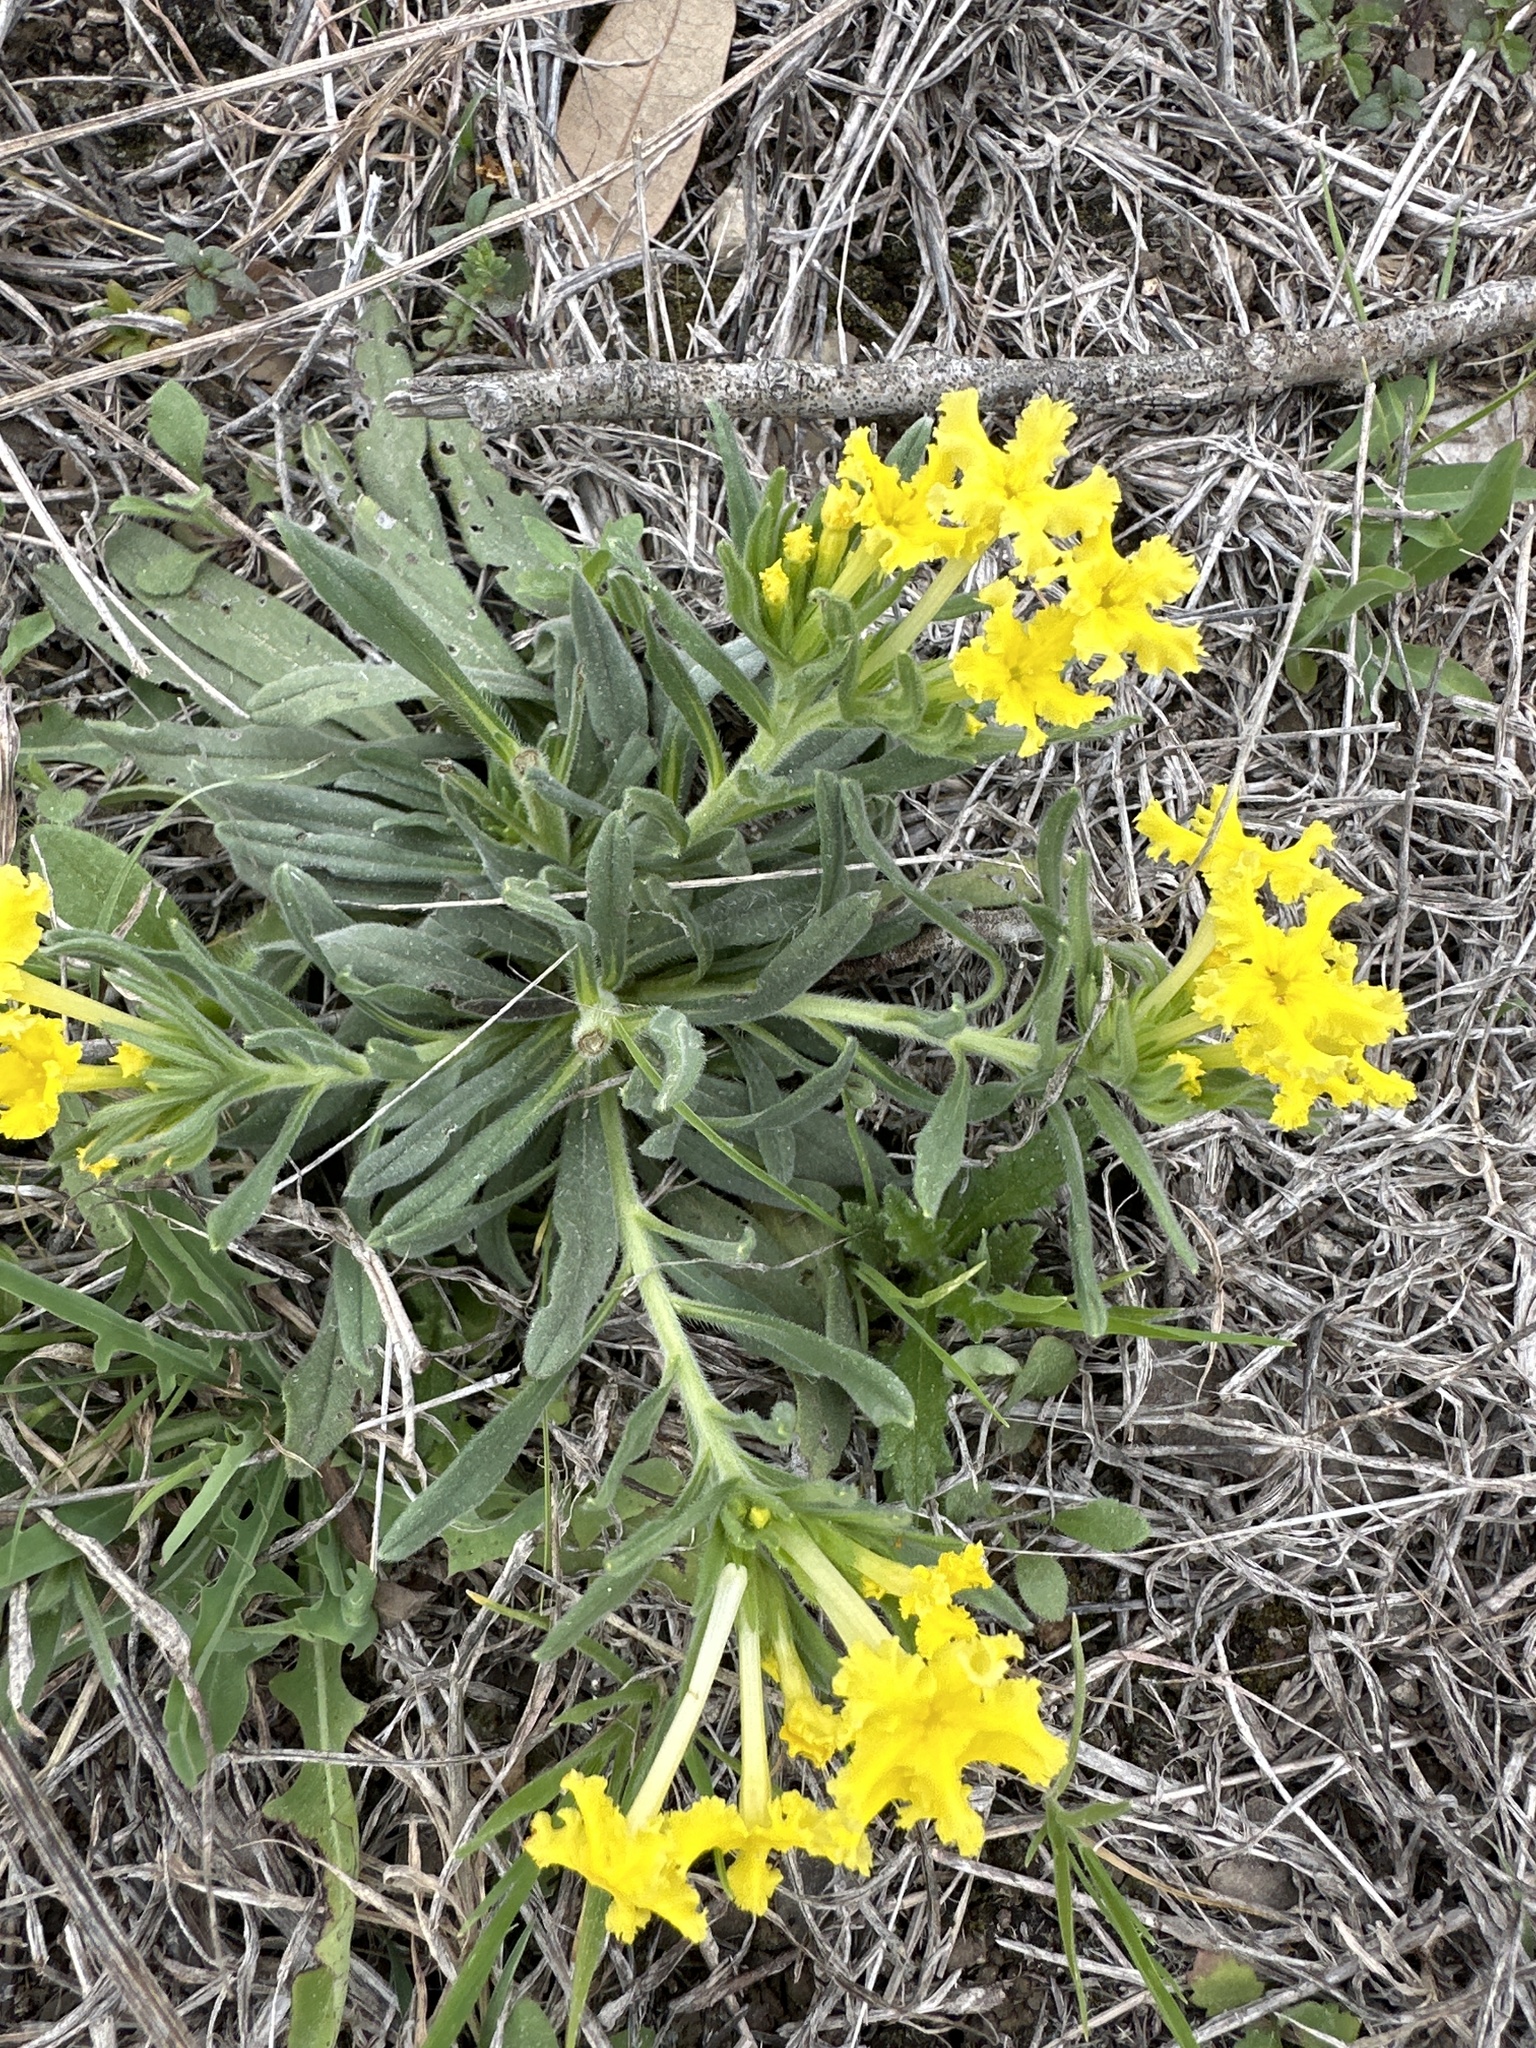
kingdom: Plantae
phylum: Tracheophyta
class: Magnoliopsida
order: Boraginales
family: Boraginaceae
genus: Lithospermum
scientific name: Lithospermum incisum
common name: Fringed gromwell
